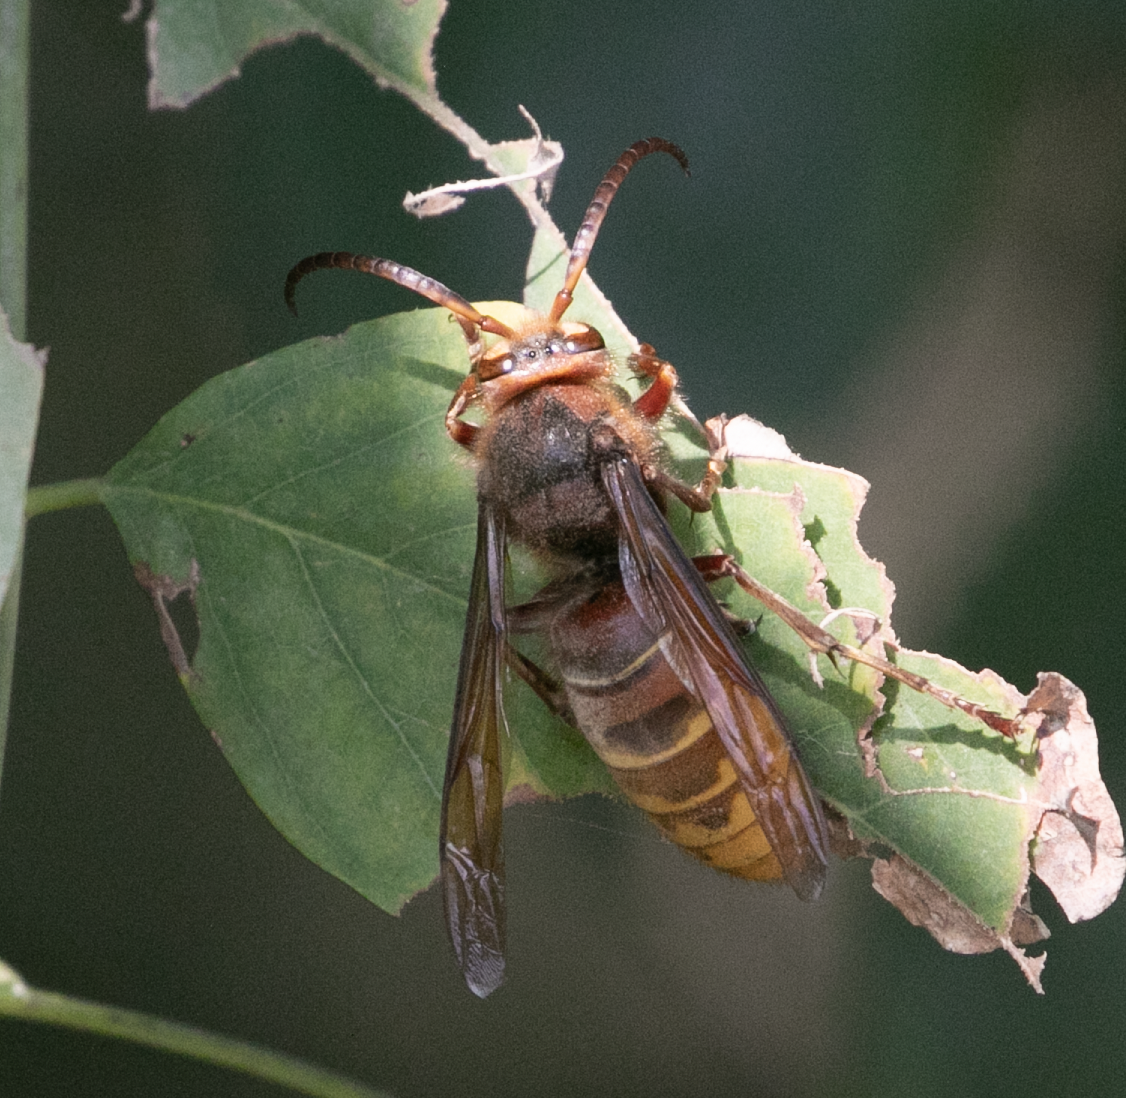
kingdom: Animalia
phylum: Arthropoda
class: Insecta
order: Hymenoptera
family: Vespidae
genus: Vespa
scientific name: Vespa crabro
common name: Hornet
